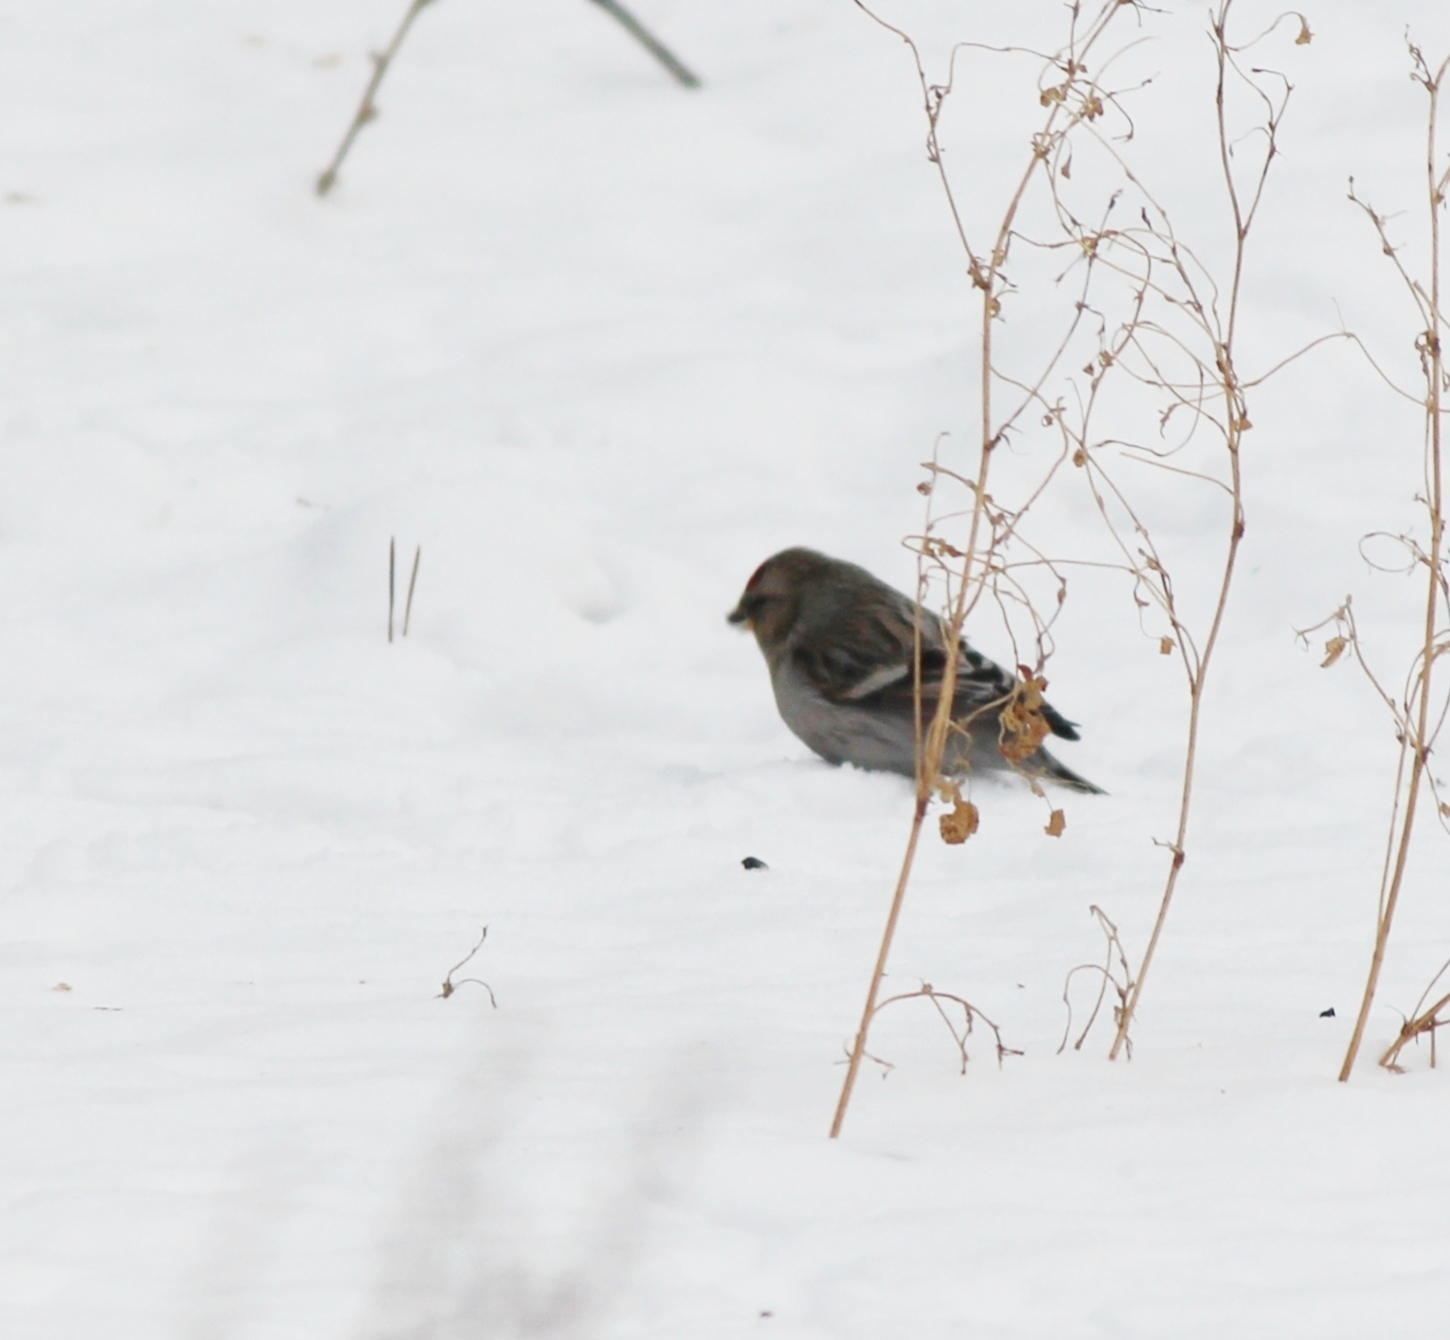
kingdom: Animalia
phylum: Chordata
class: Aves
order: Passeriformes
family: Fringillidae
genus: Acanthis
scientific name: Acanthis flammea
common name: Common redpoll
